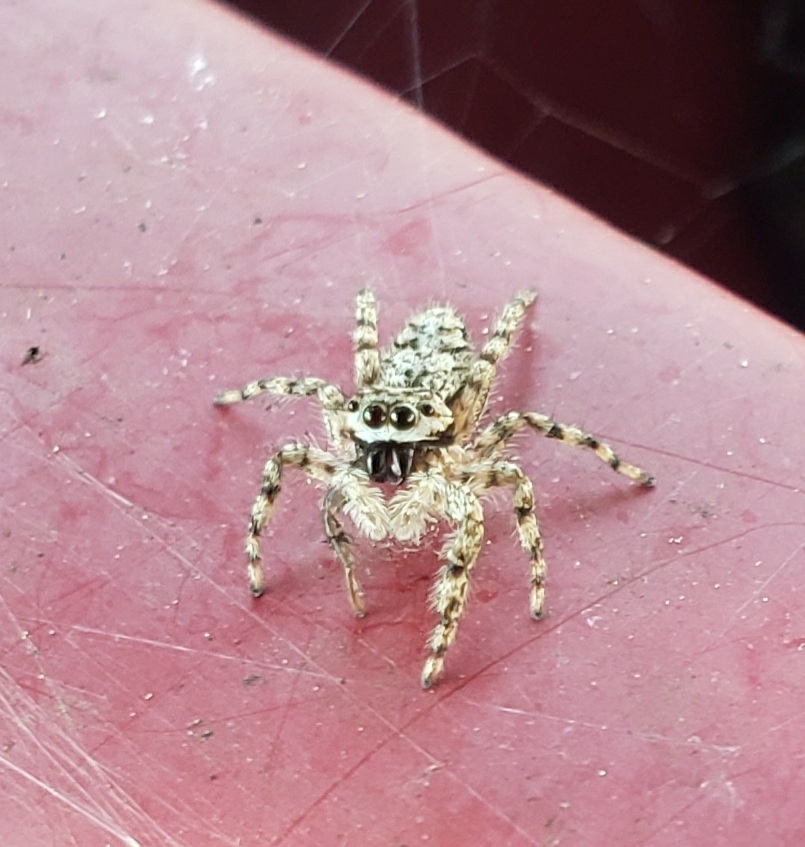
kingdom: Animalia
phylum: Arthropoda
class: Arachnida
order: Araneae
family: Salticidae
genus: Platycryptus
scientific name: Platycryptus undatus
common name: Tan jumping spider
